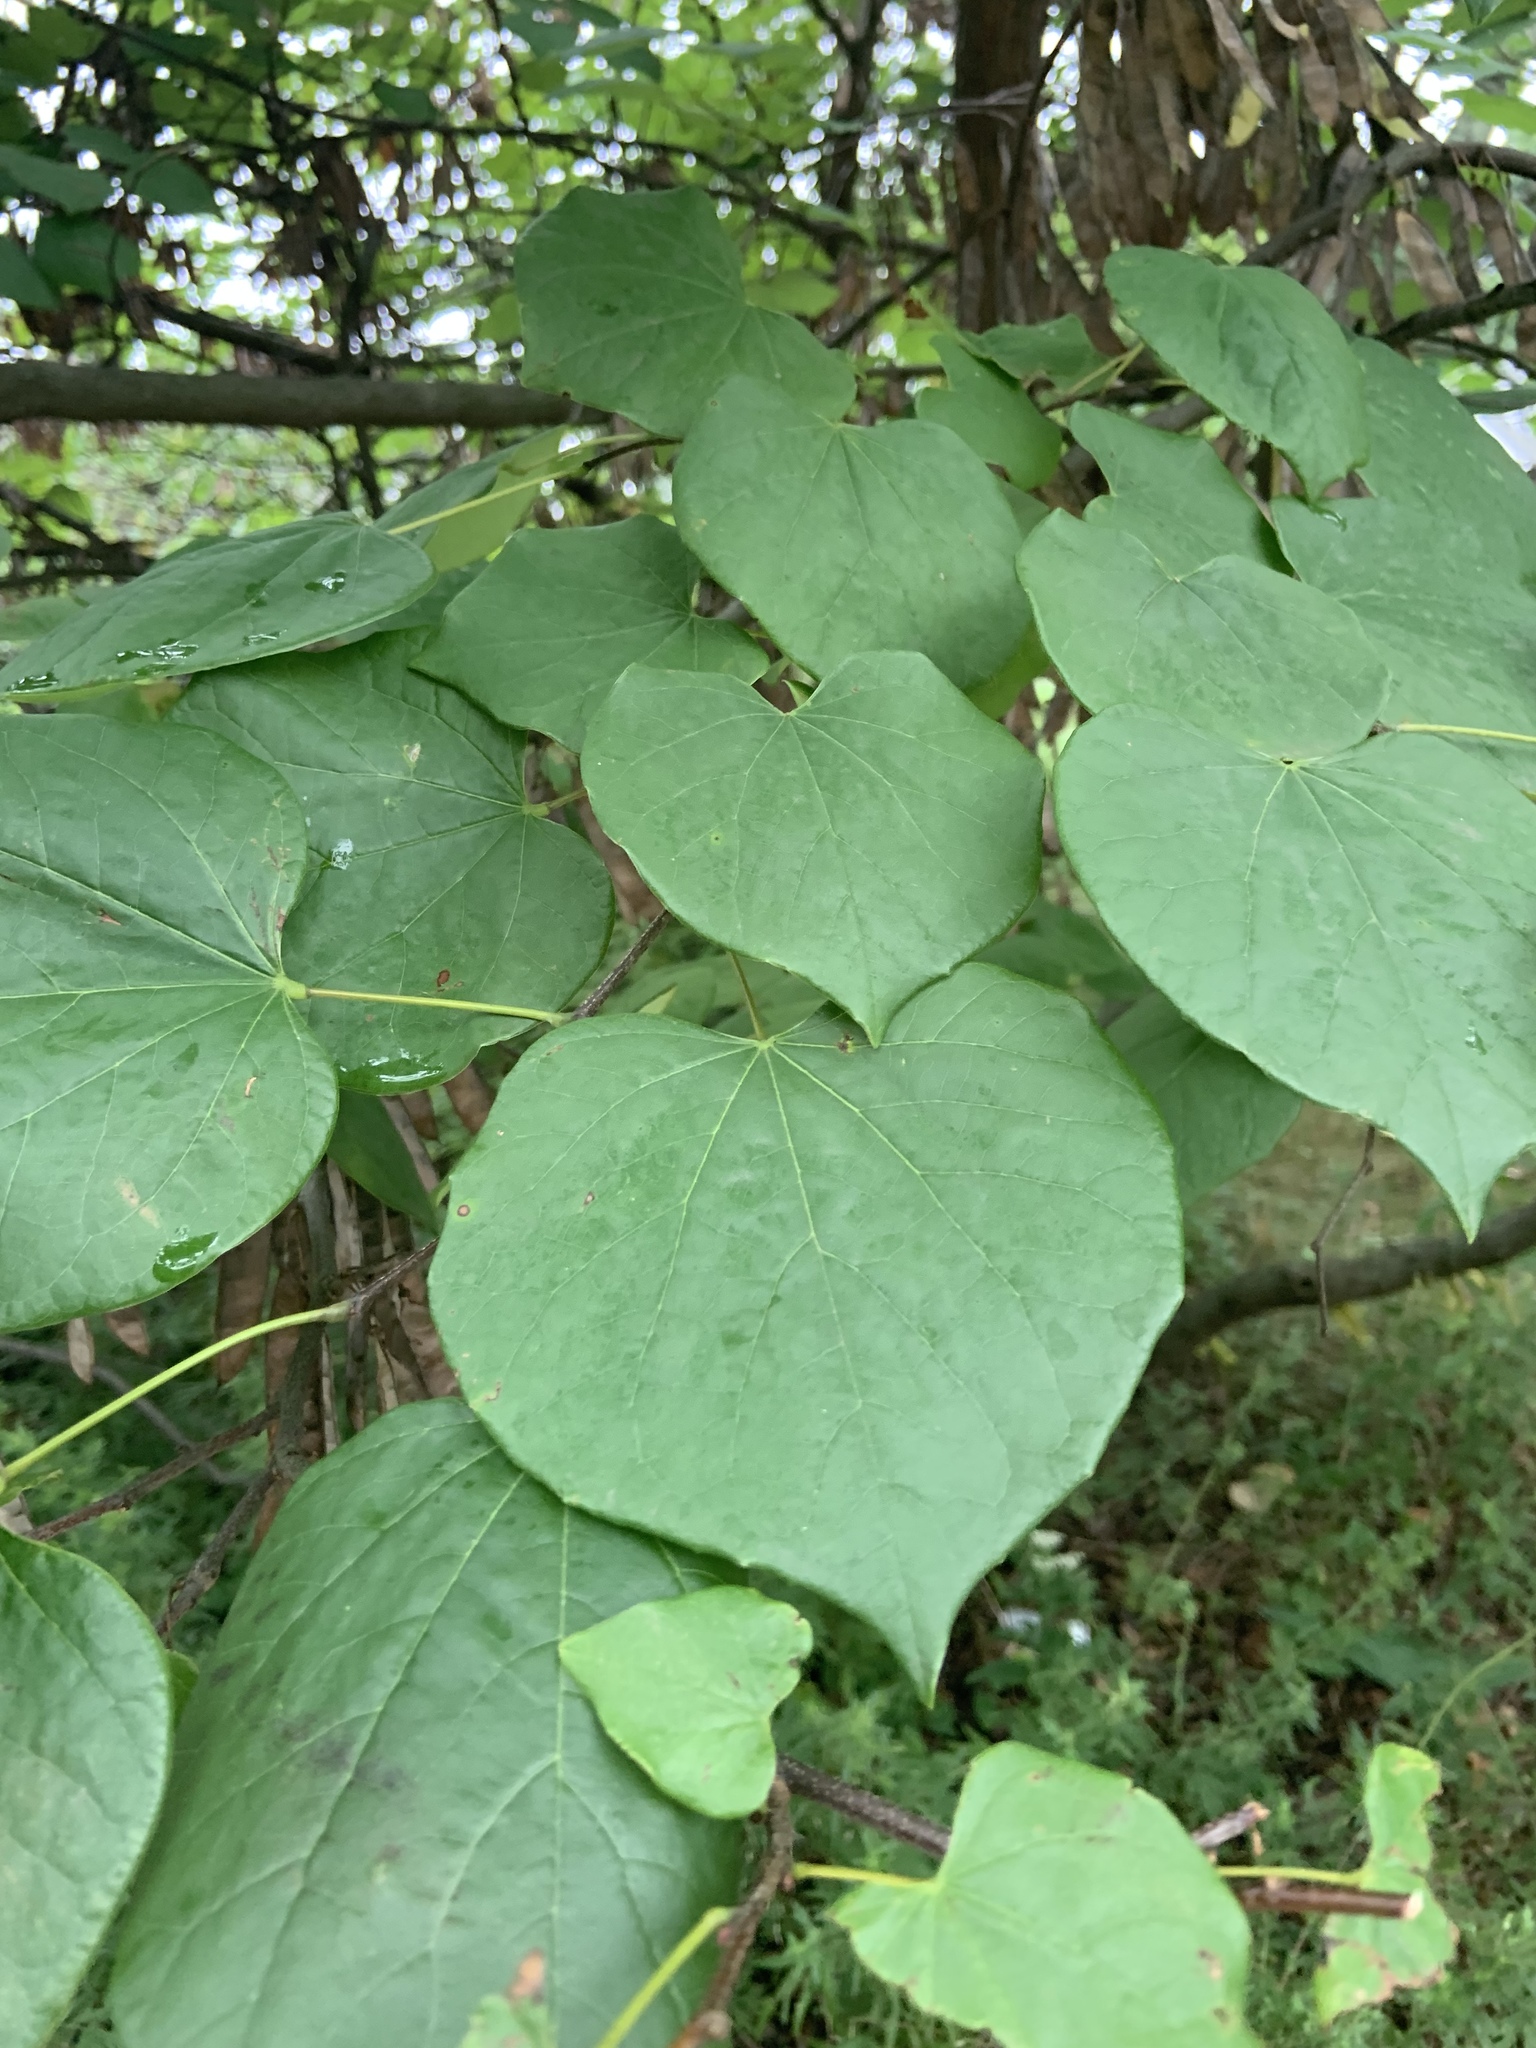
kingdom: Plantae
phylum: Tracheophyta
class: Magnoliopsida
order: Fabales
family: Fabaceae
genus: Cercis
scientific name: Cercis canadensis
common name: Eastern redbud
